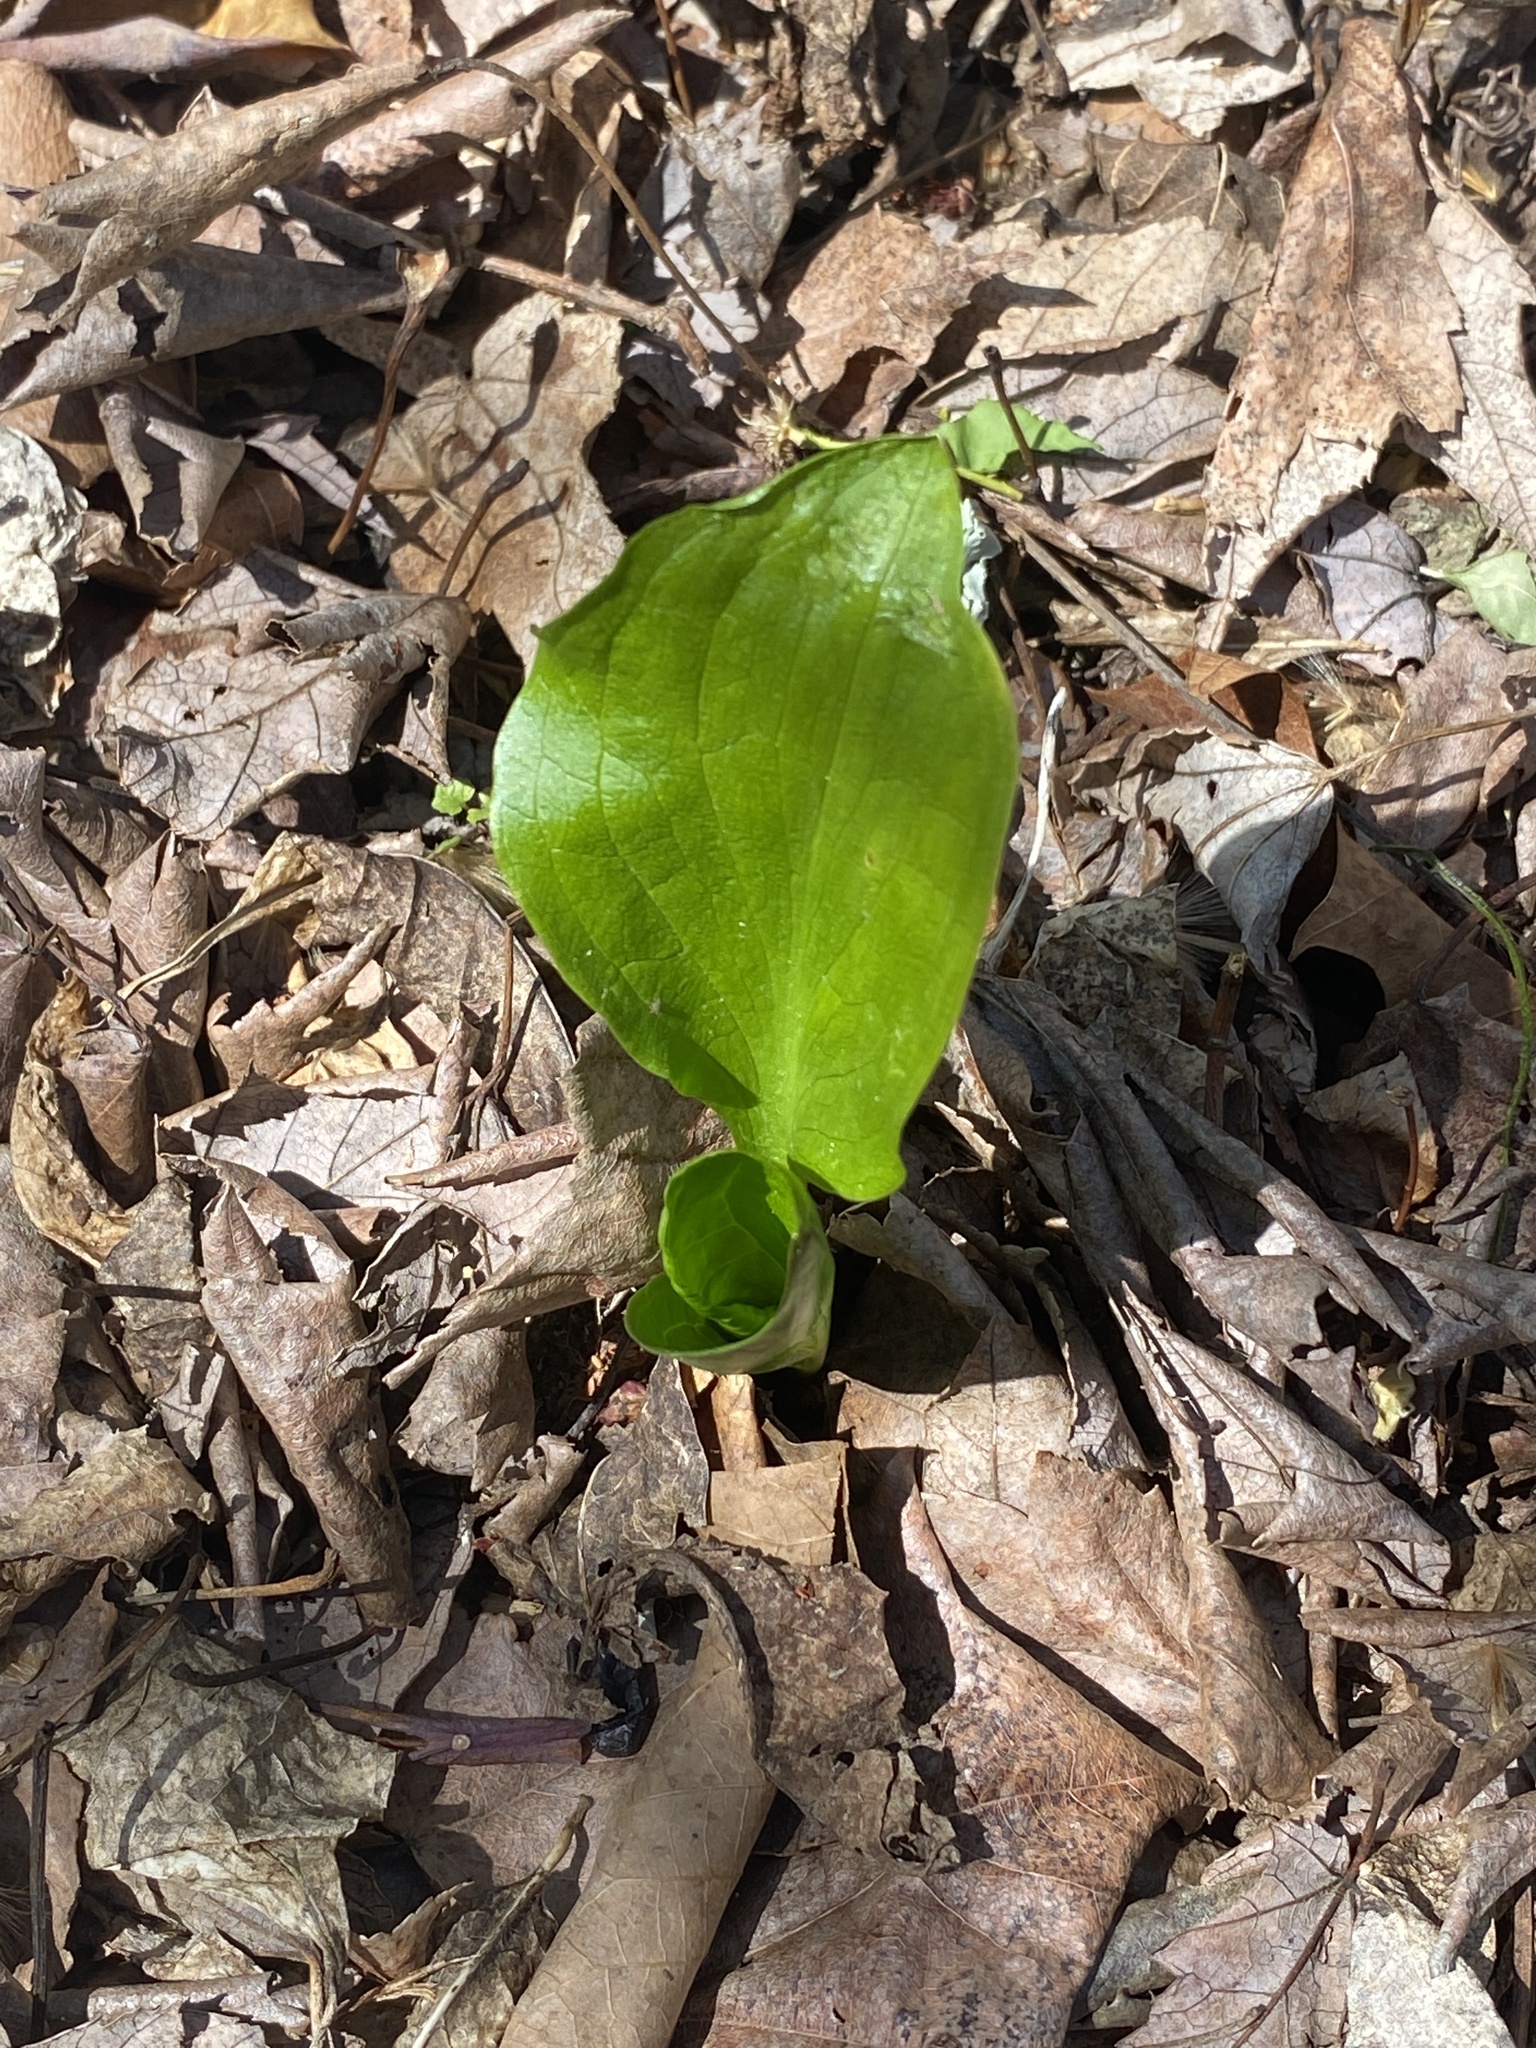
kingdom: Plantae
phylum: Tracheophyta
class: Liliopsida
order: Alismatales
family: Araceae
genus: Symplocarpus
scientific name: Symplocarpus foetidus
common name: Eastern skunk cabbage
